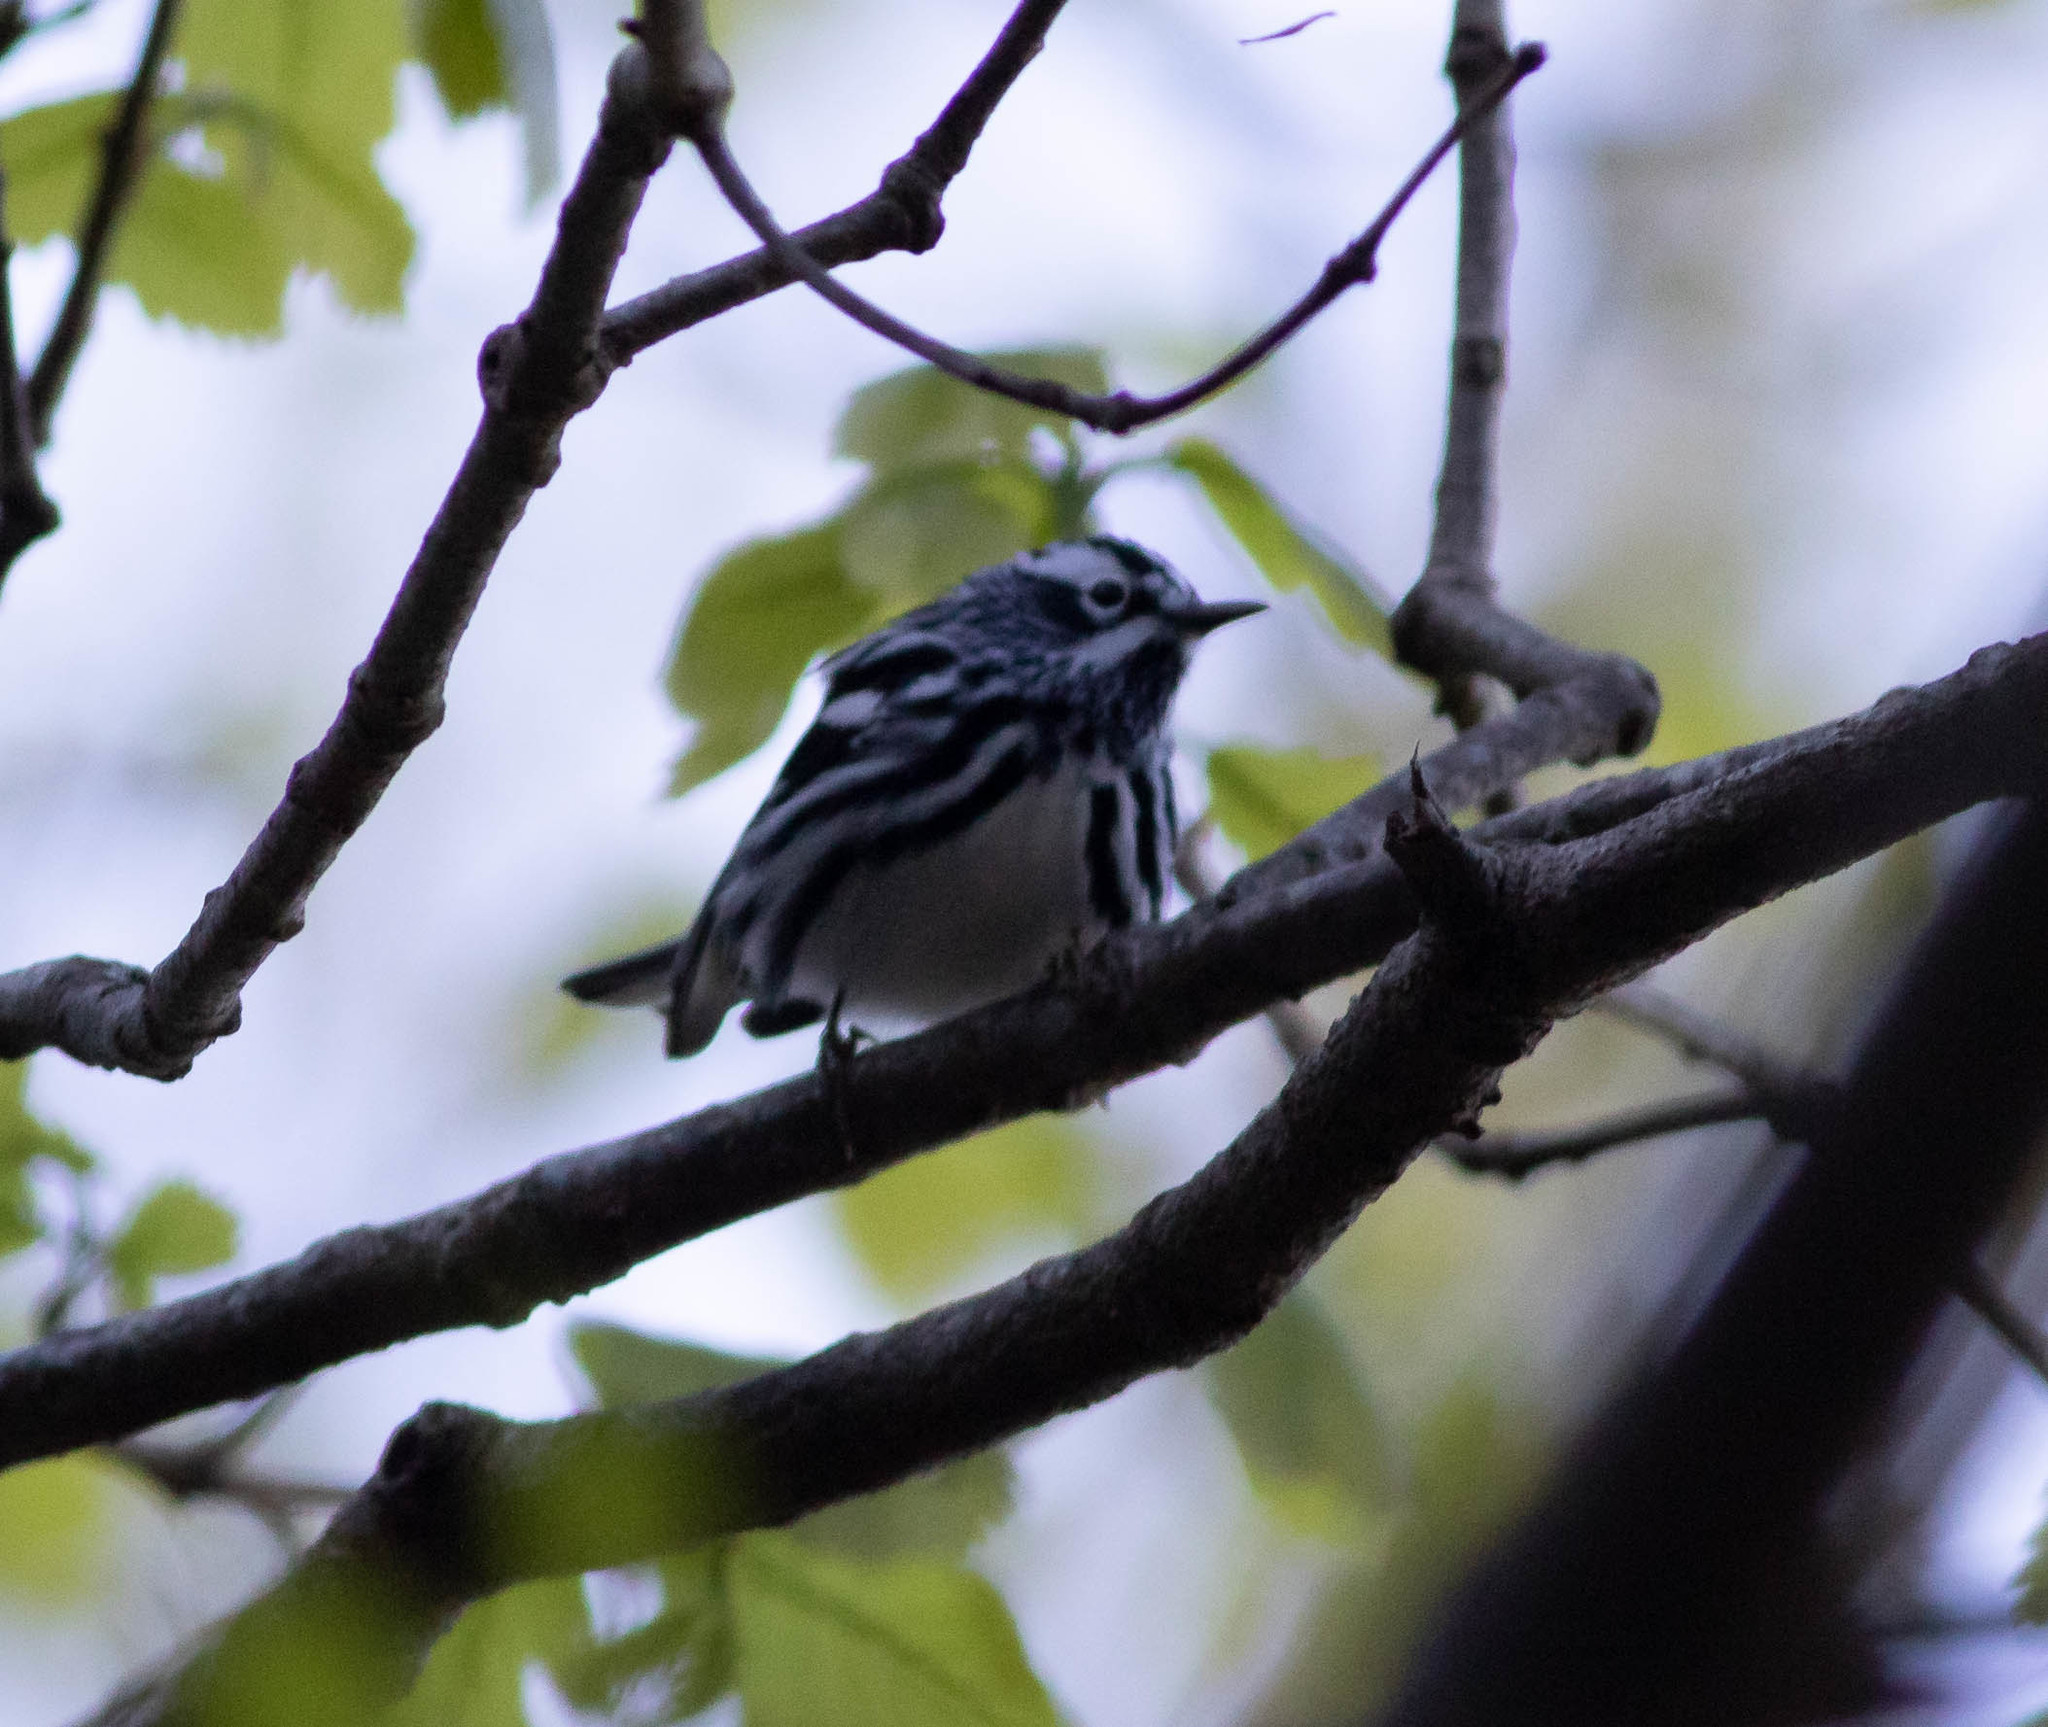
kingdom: Animalia
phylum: Chordata
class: Aves
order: Passeriformes
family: Parulidae
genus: Mniotilta
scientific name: Mniotilta varia
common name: Black-and-white warbler
